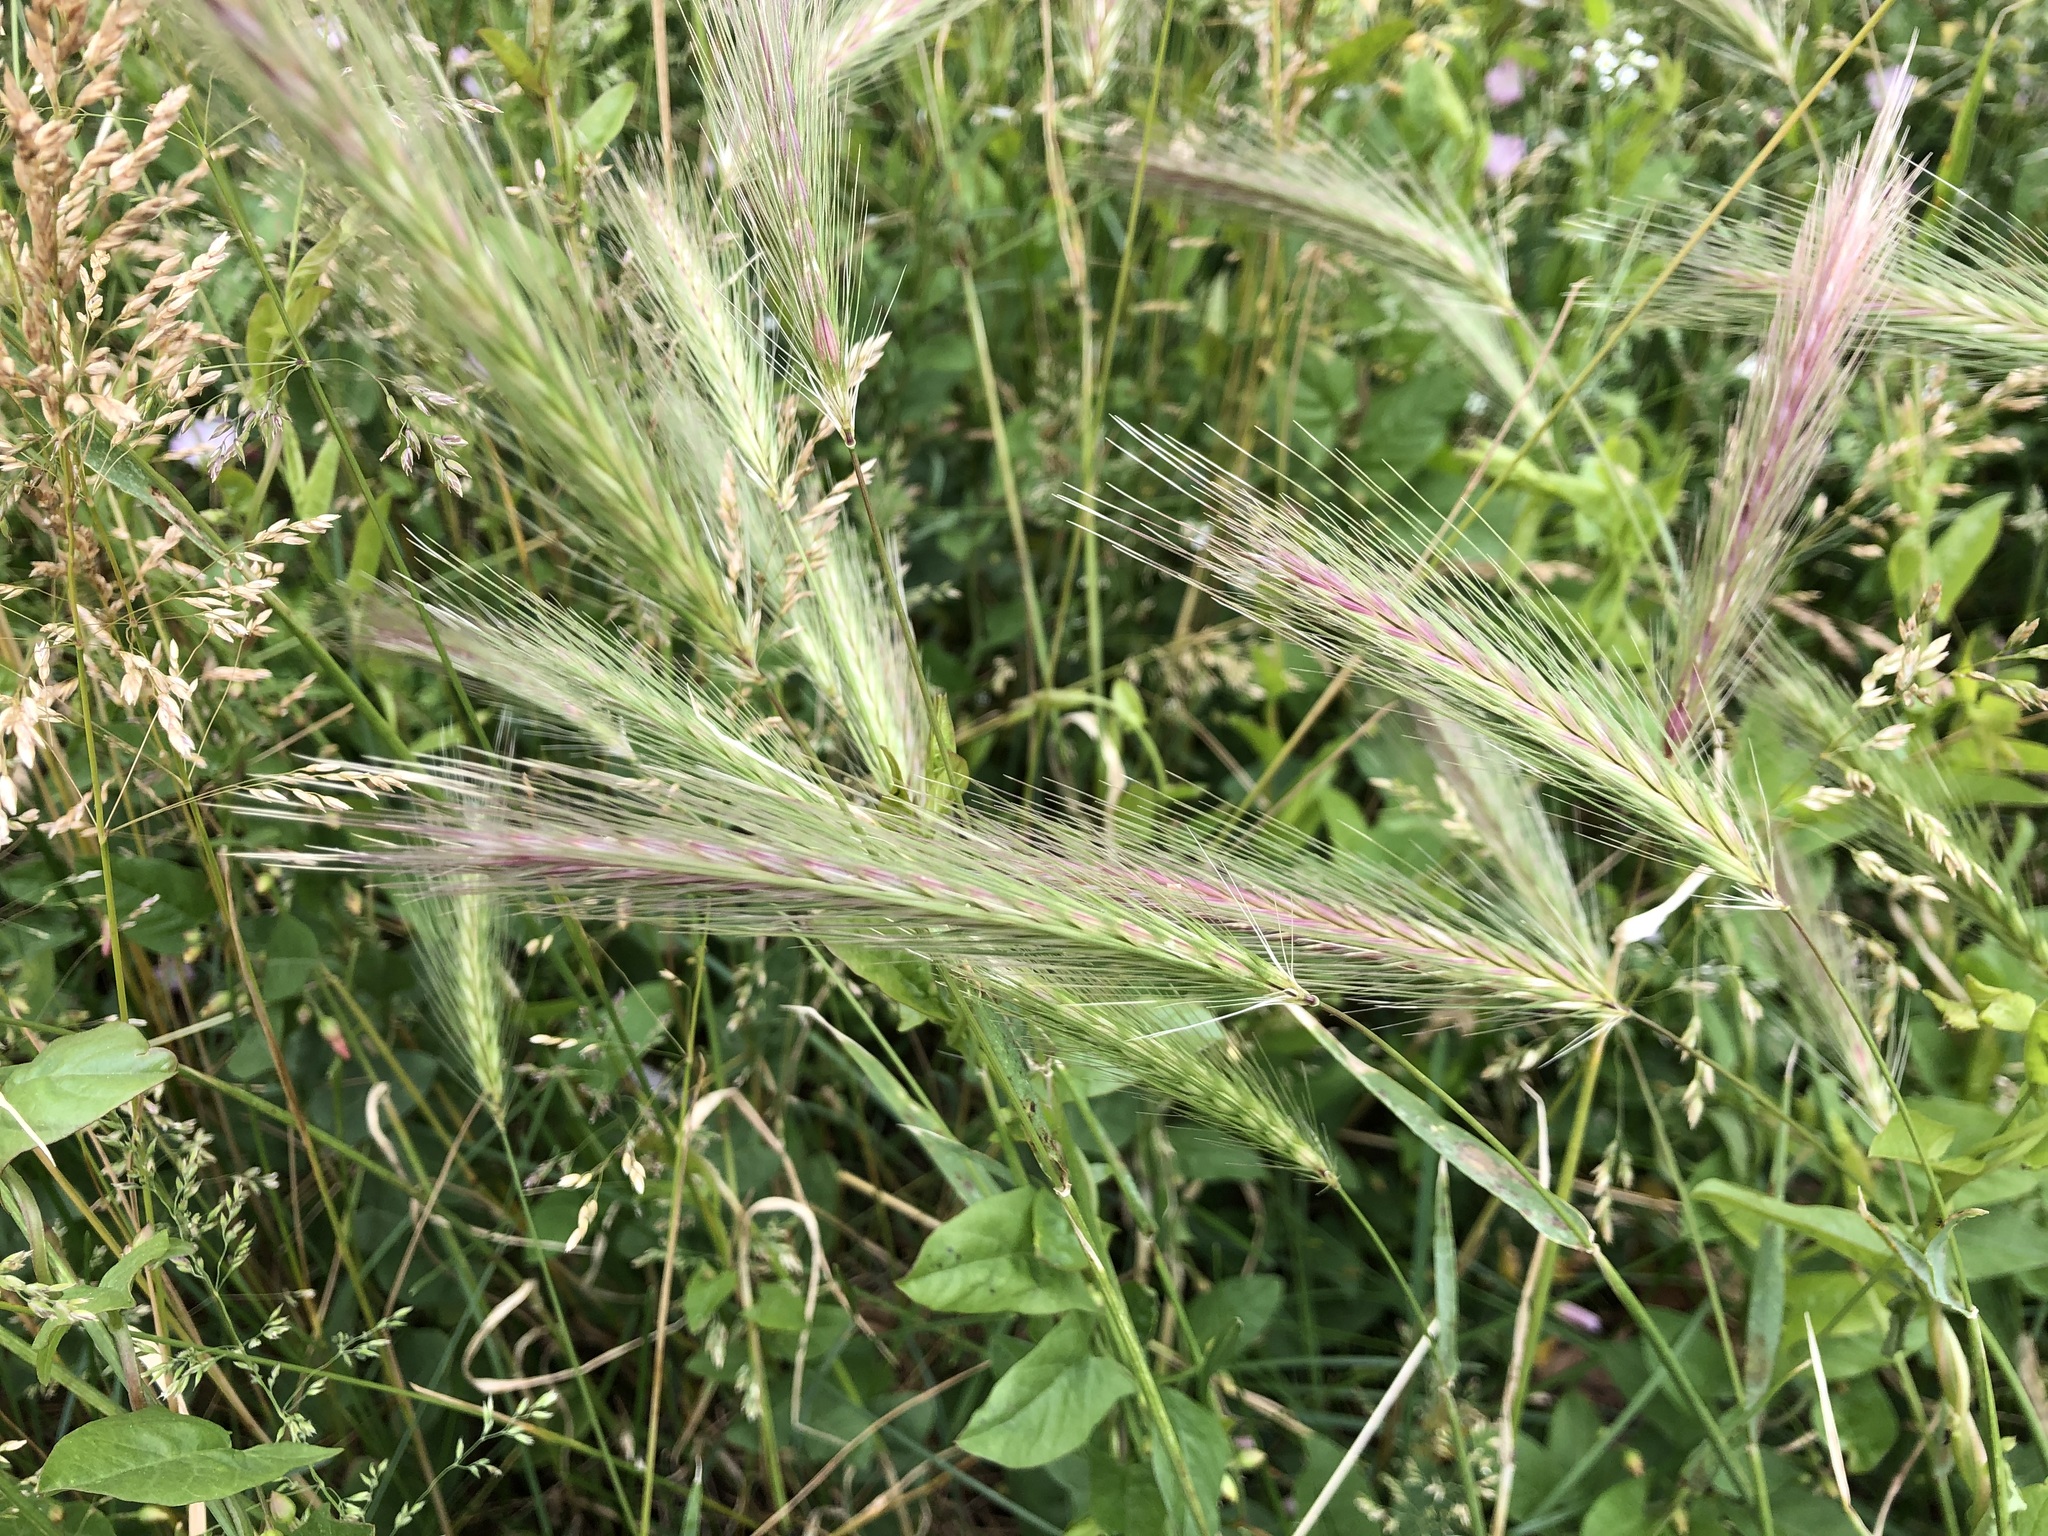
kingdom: Plantae
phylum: Tracheophyta
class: Liliopsida
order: Poales
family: Poaceae
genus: Hordeum
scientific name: Hordeum murinum
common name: Wall barley
